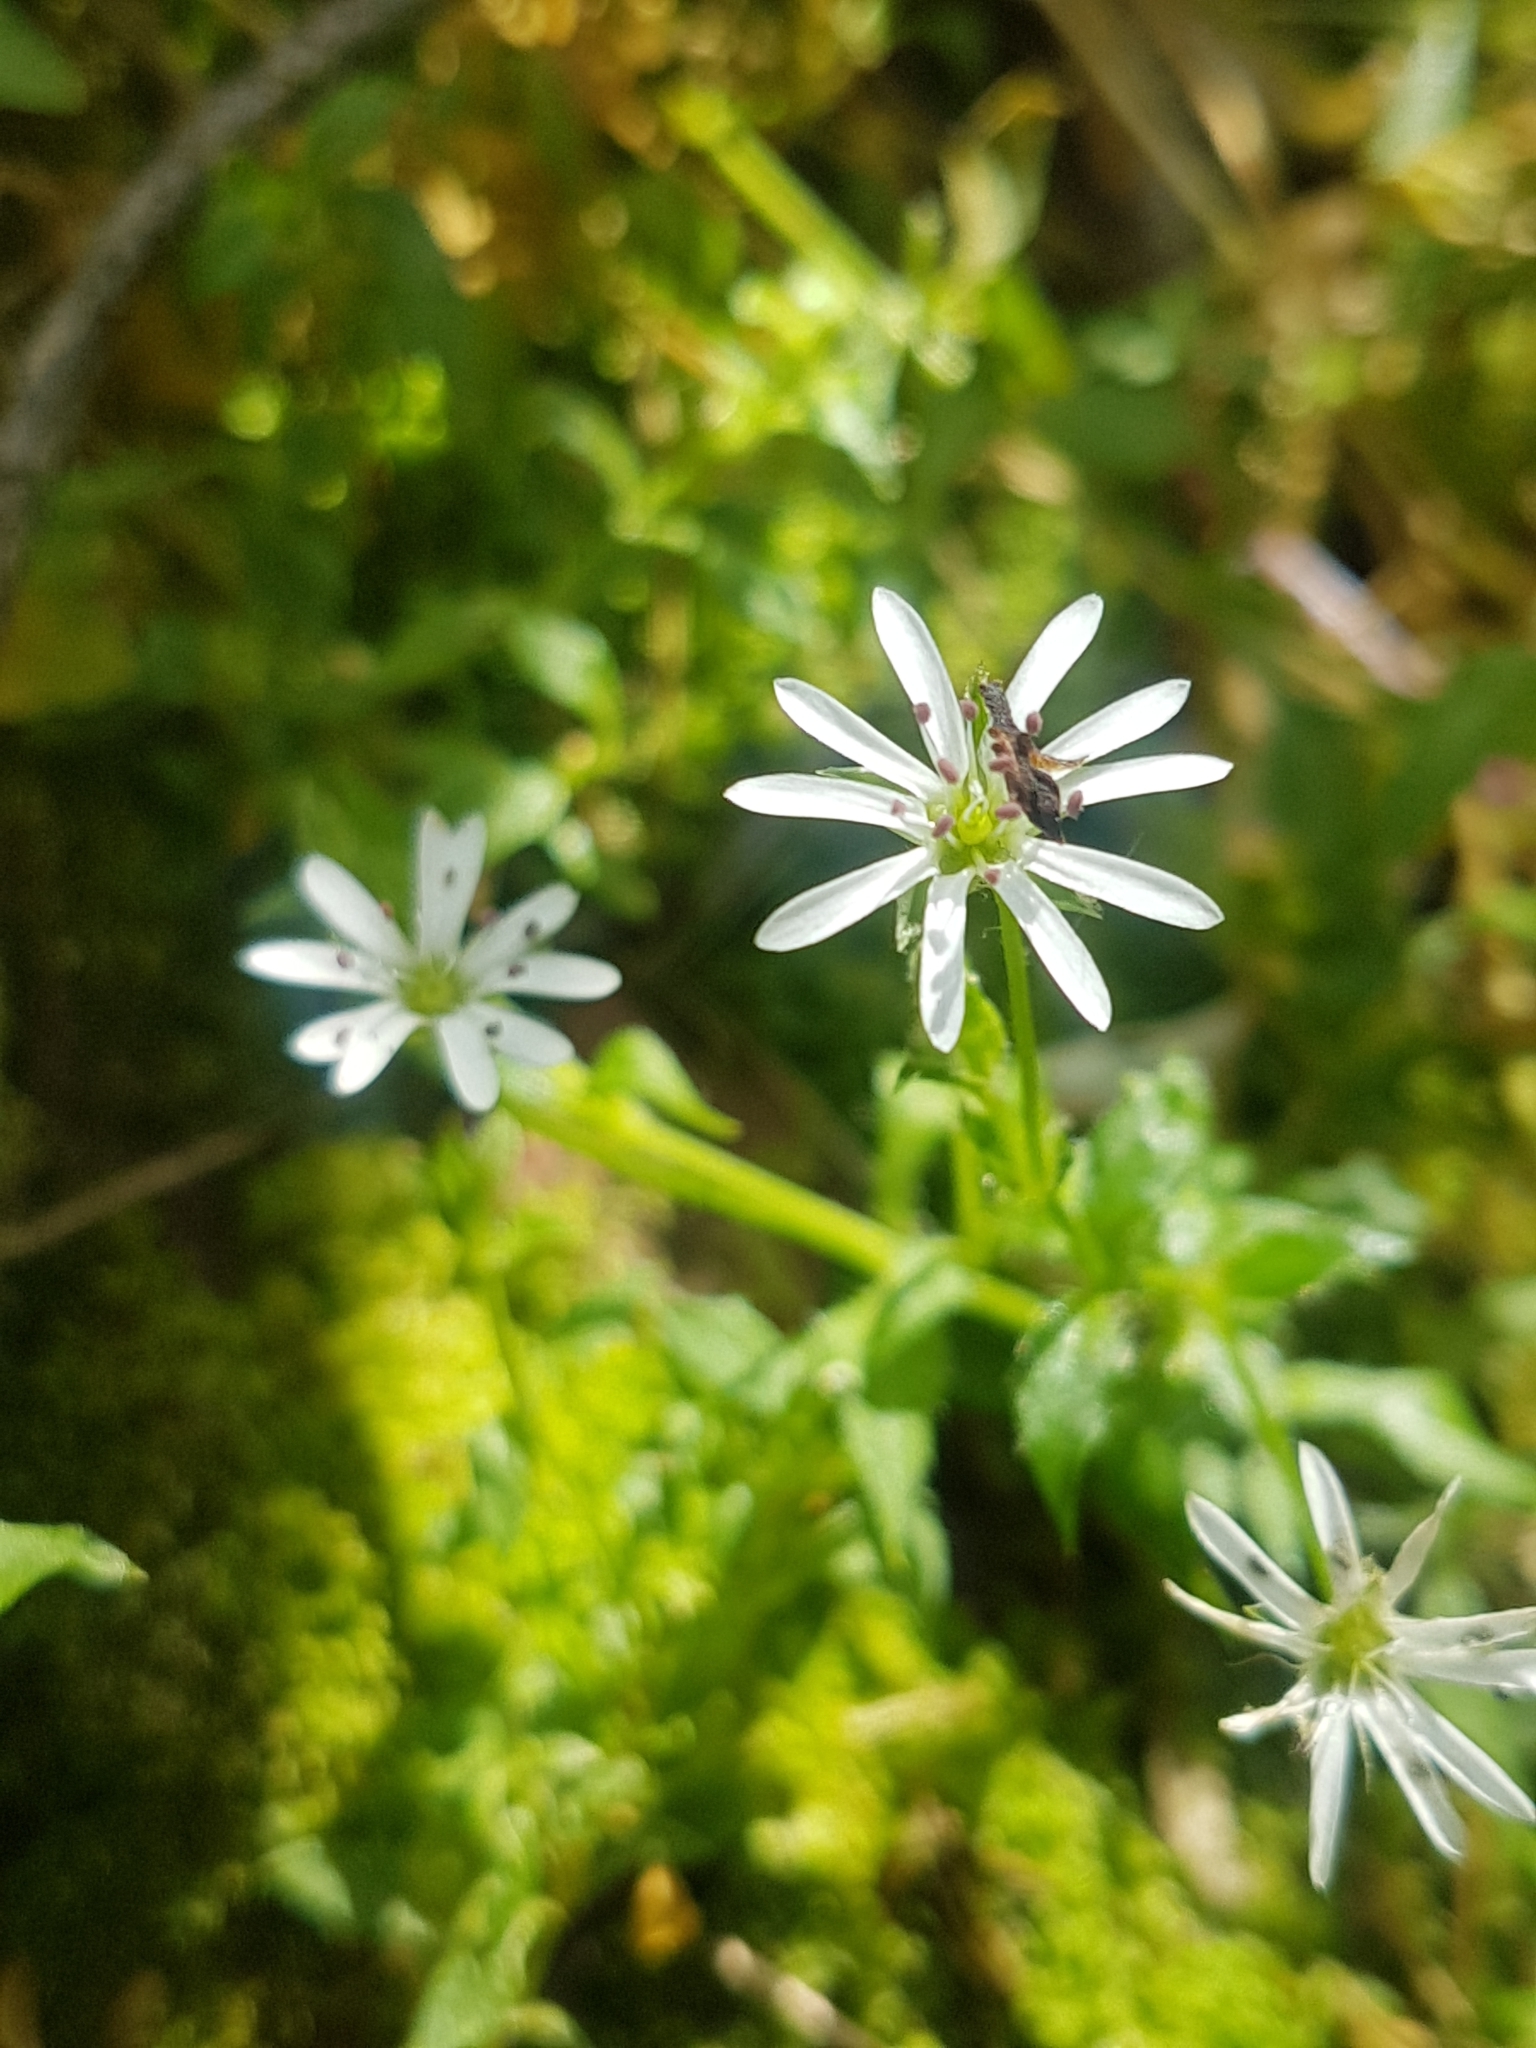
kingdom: Plantae
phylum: Tracheophyta
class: Magnoliopsida
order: Caryophyllales
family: Caryophyllaceae
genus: Stellaria
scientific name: Stellaria graminea
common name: Grass-like starwort
